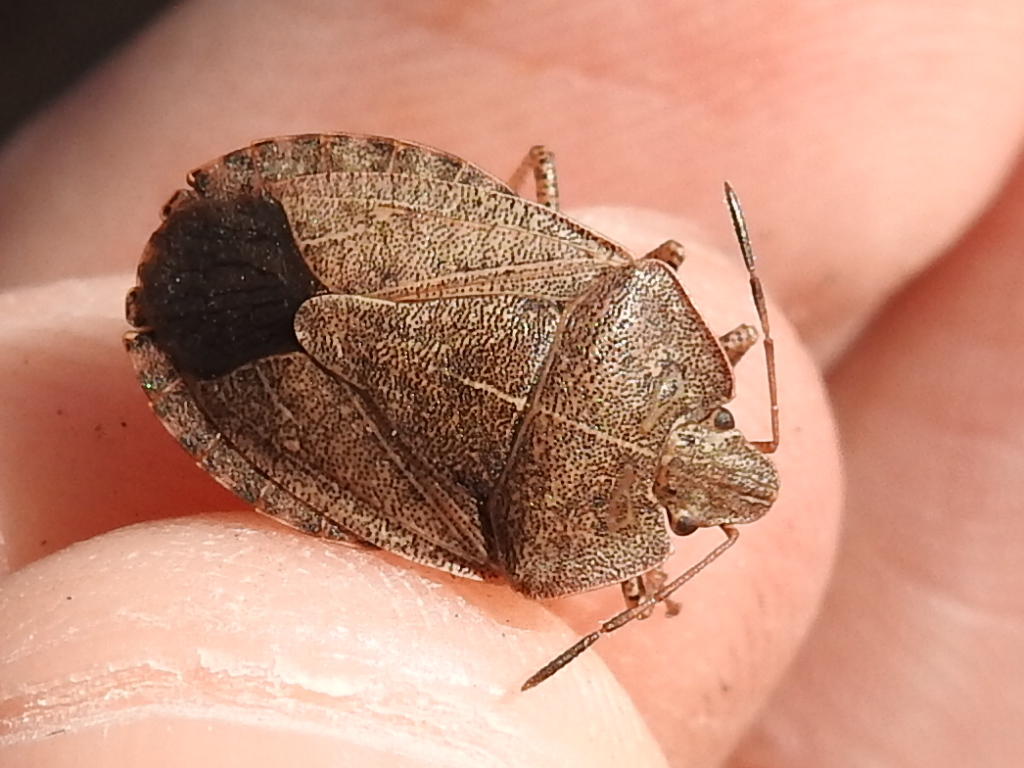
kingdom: Animalia
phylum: Arthropoda
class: Insecta
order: Hemiptera
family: Pentatomidae
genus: Menecles
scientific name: Menecles insertus
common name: Elf shoe stink bug
